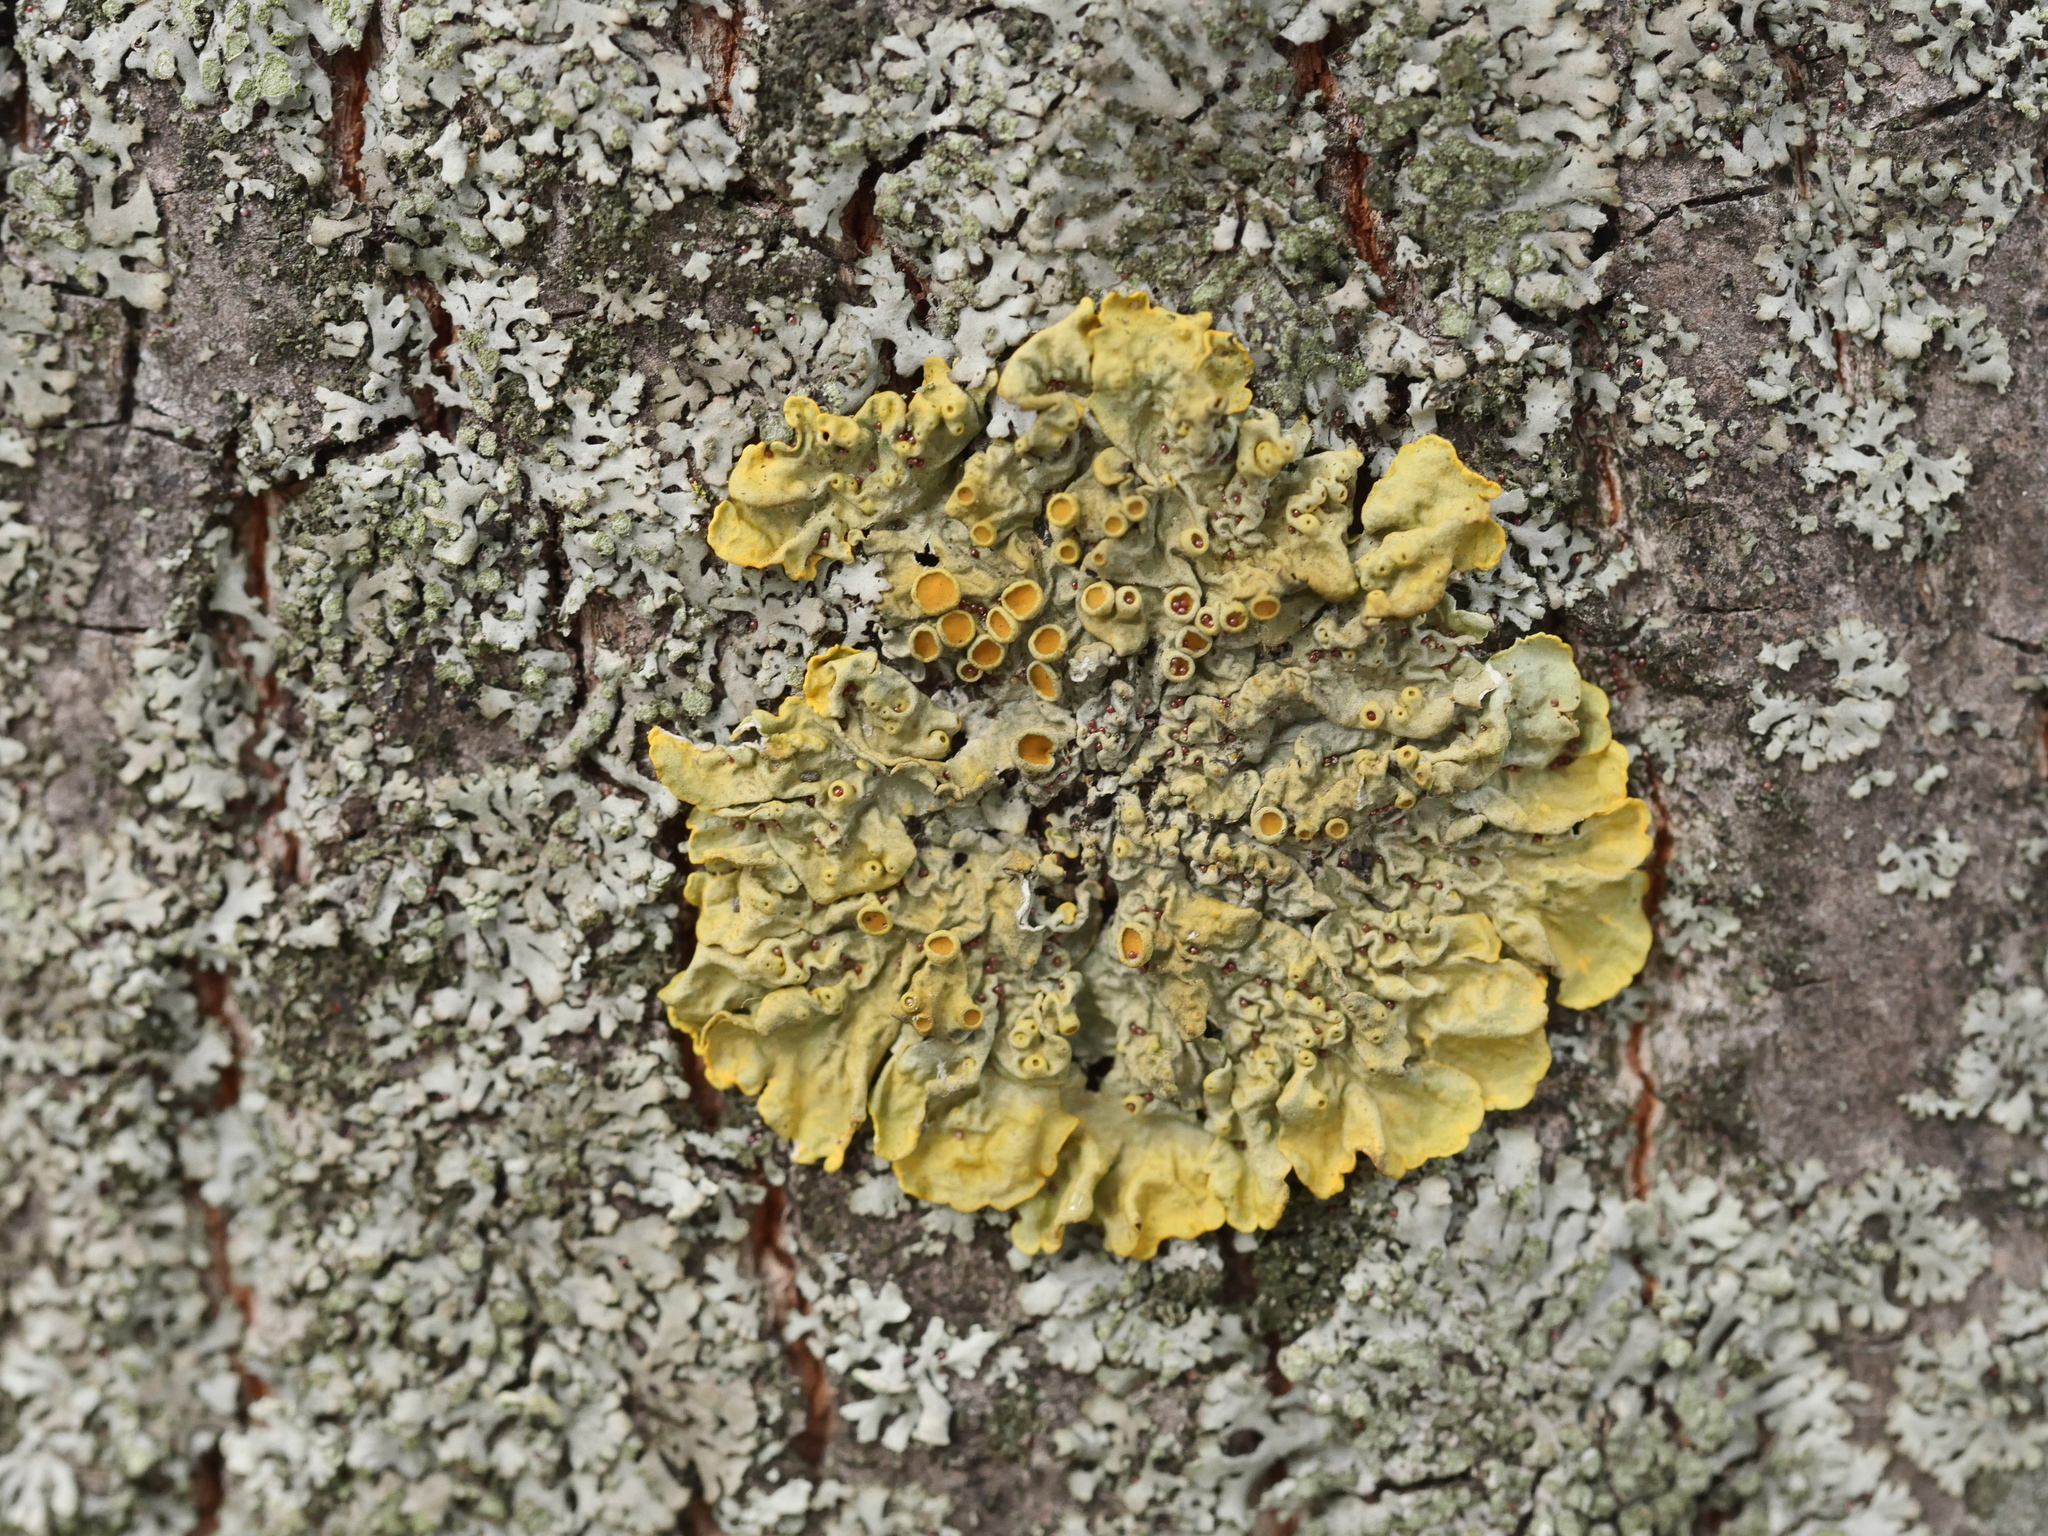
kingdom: Fungi
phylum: Ascomycota
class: Lecanoromycetes
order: Teloschistales
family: Teloschistaceae
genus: Xanthoria
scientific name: Xanthoria parietina
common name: Common orange lichen
